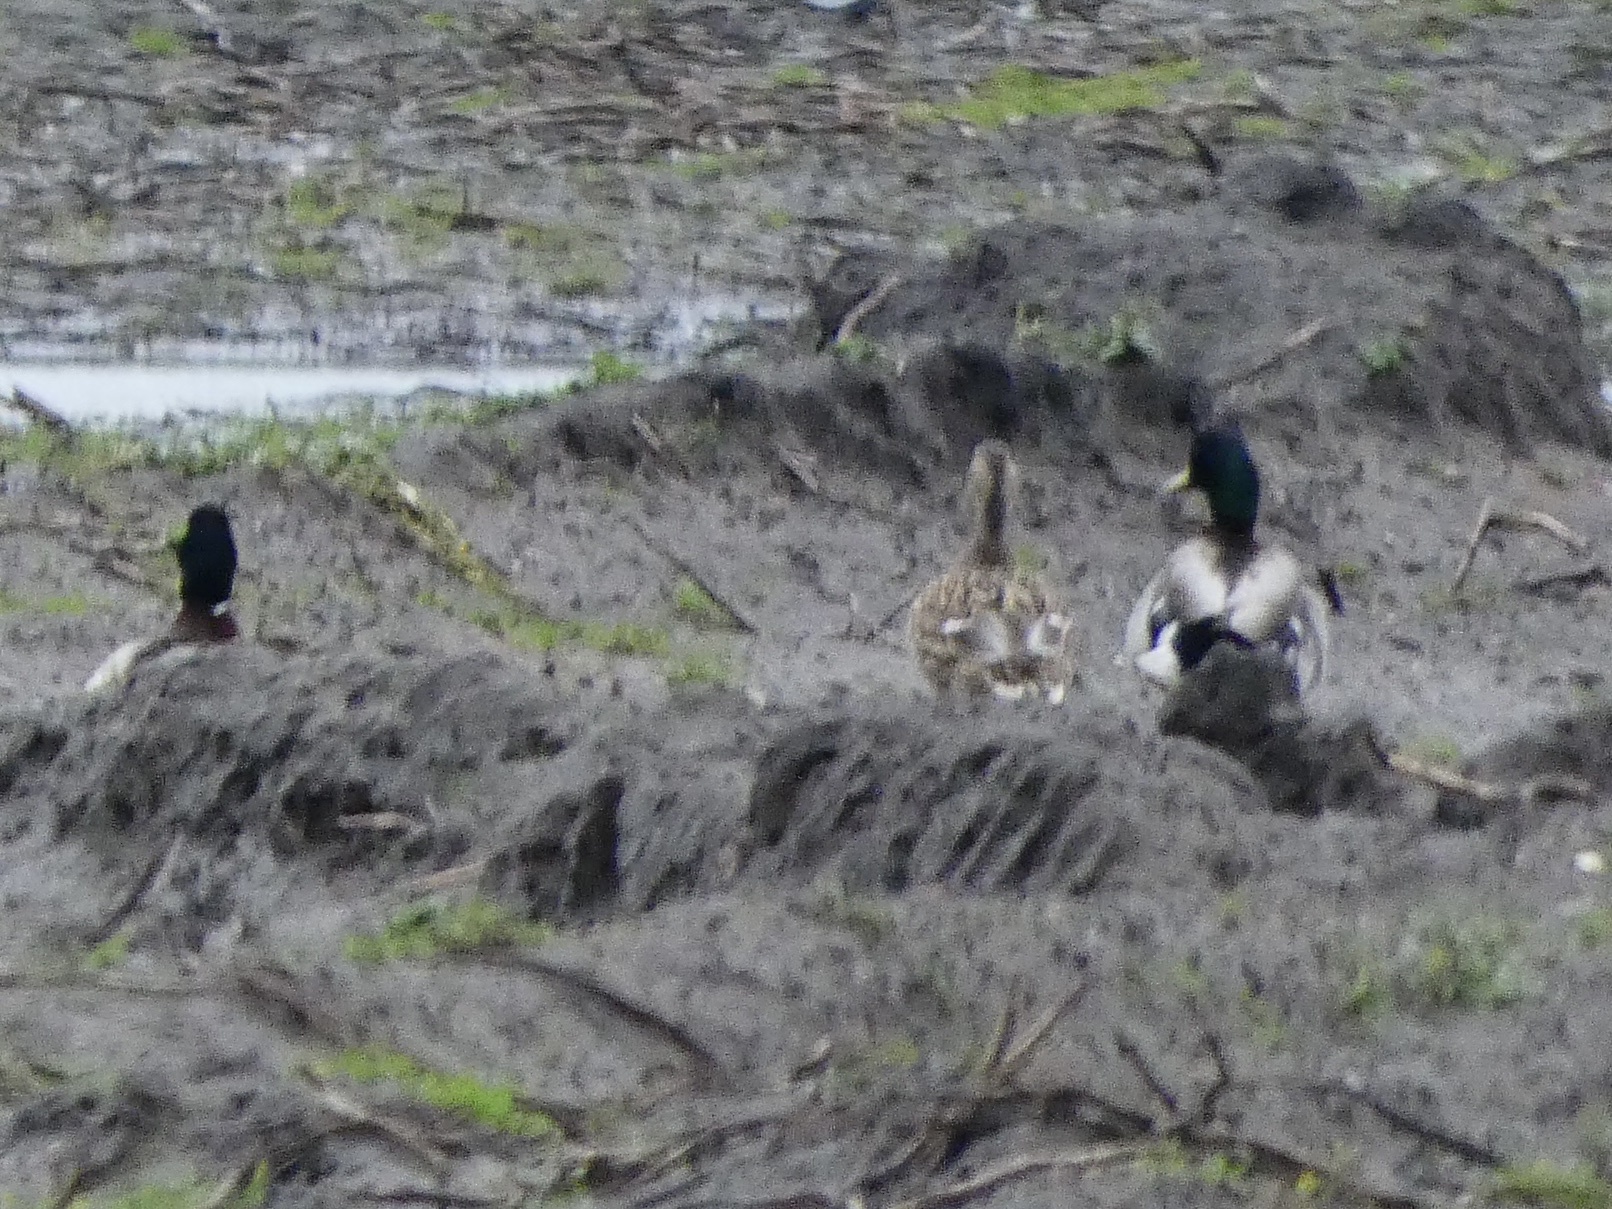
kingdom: Animalia
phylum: Chordata
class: Aves
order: Anseriformes
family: Anatidae
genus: Anas
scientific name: Anas platyrhynchos
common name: Mallard
